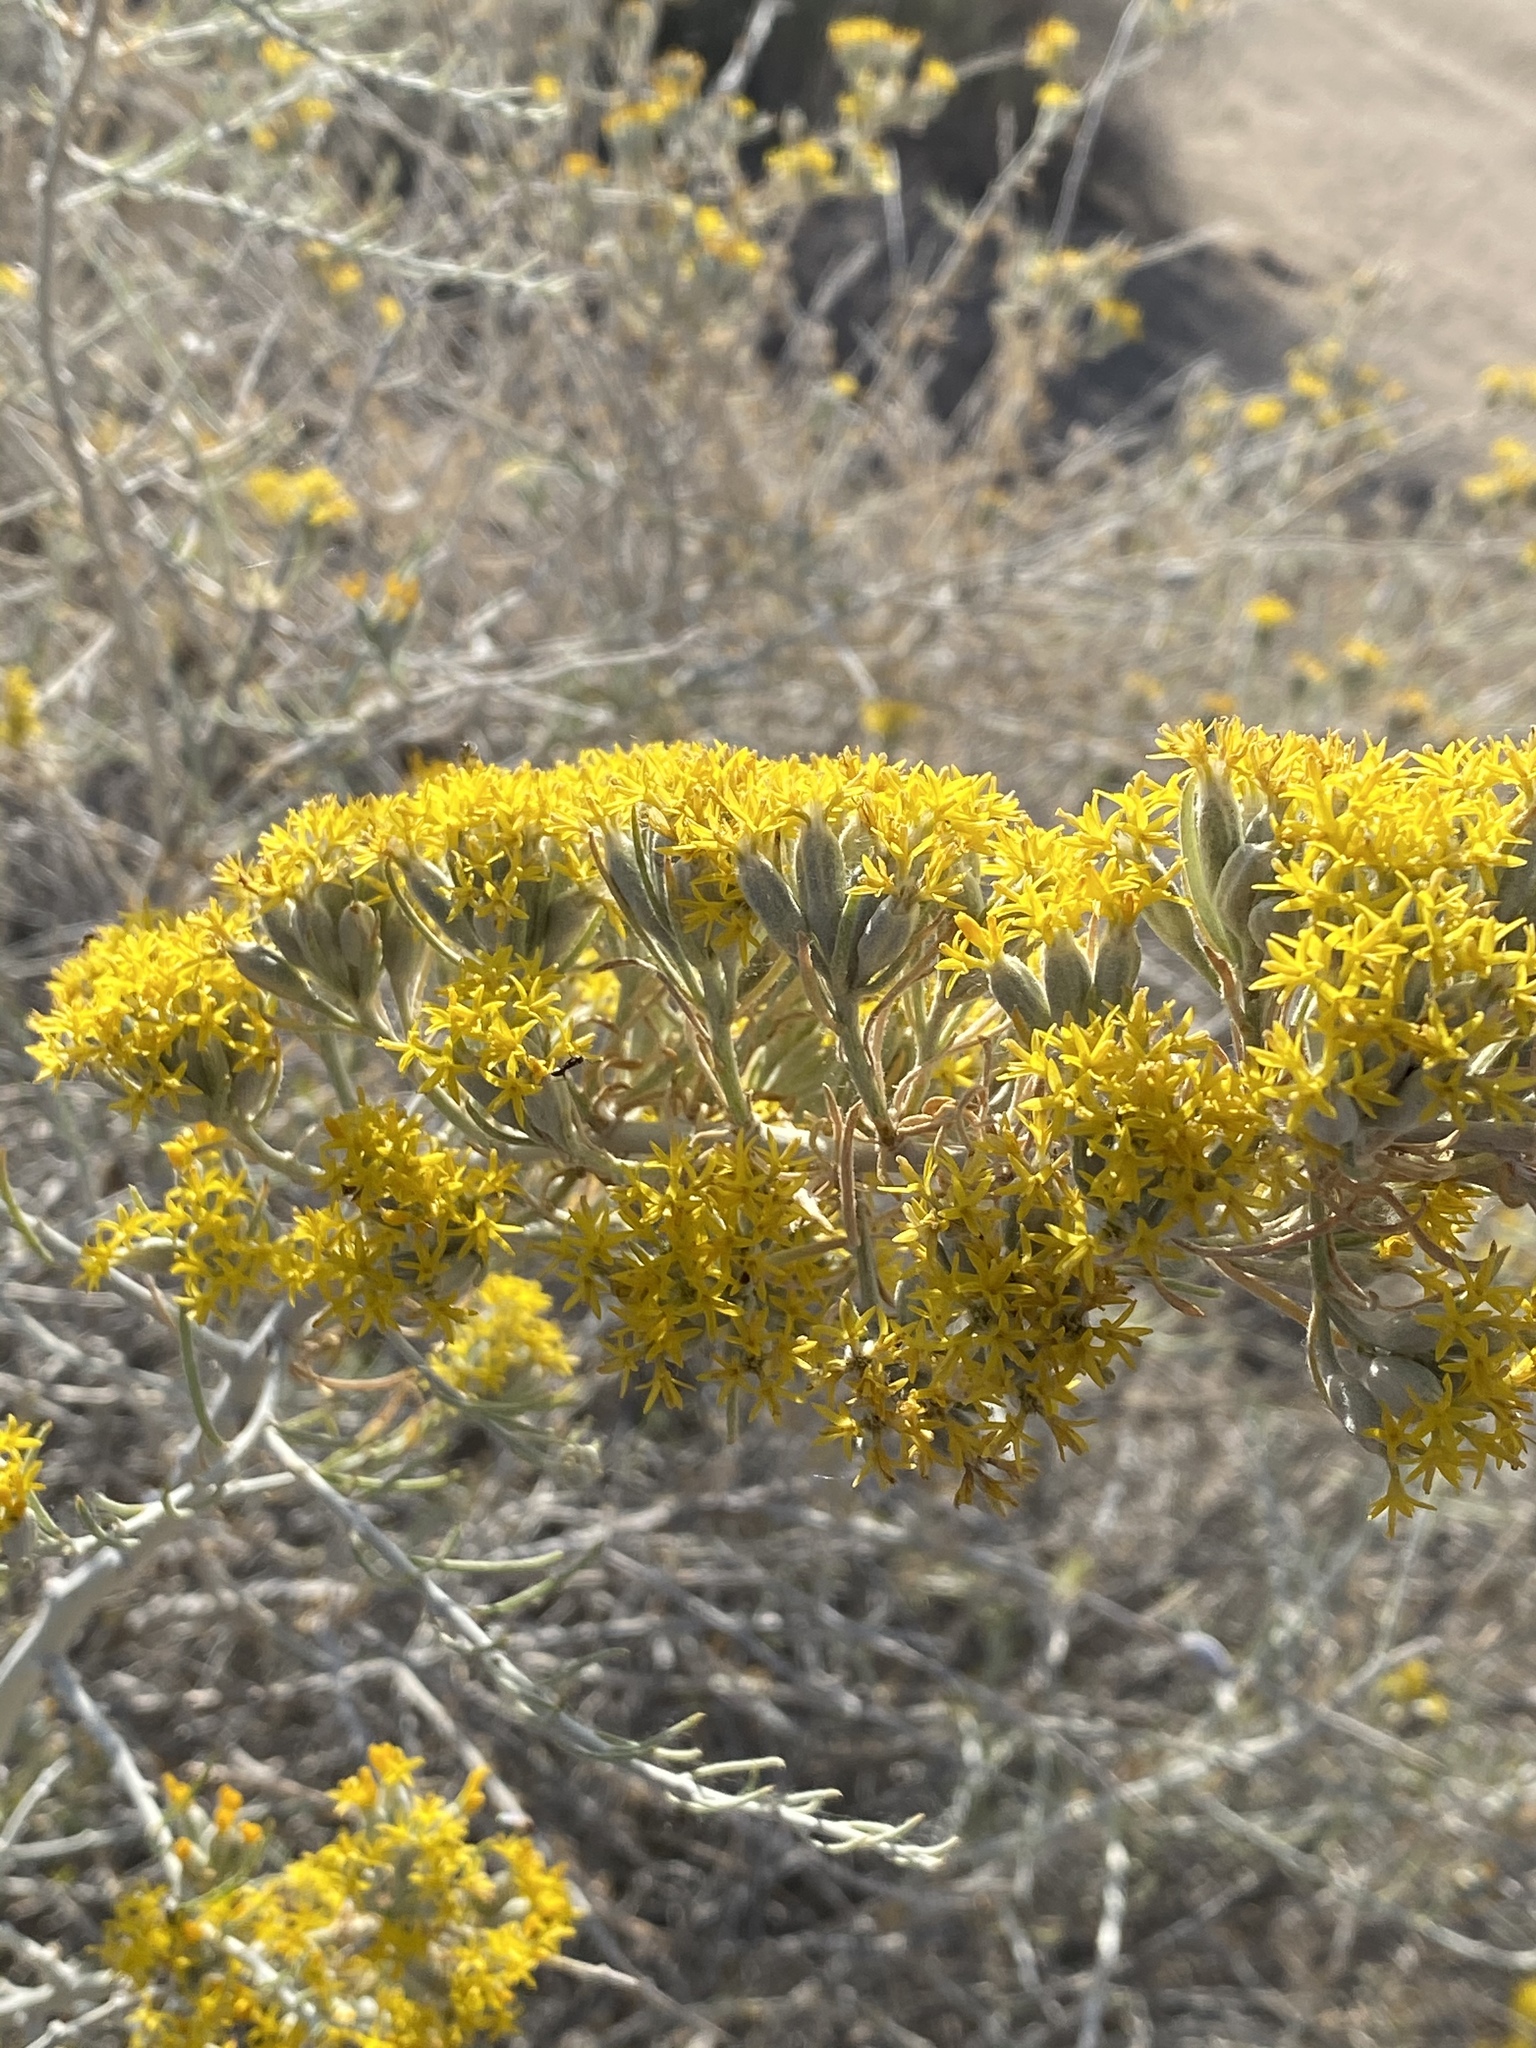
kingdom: Plantae
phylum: Tracheophyta
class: Magnoliopsida
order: Asterales
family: Asteraceae
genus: Tetradymia
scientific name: Tetradymia tetrameres
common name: Dune horsebrush
